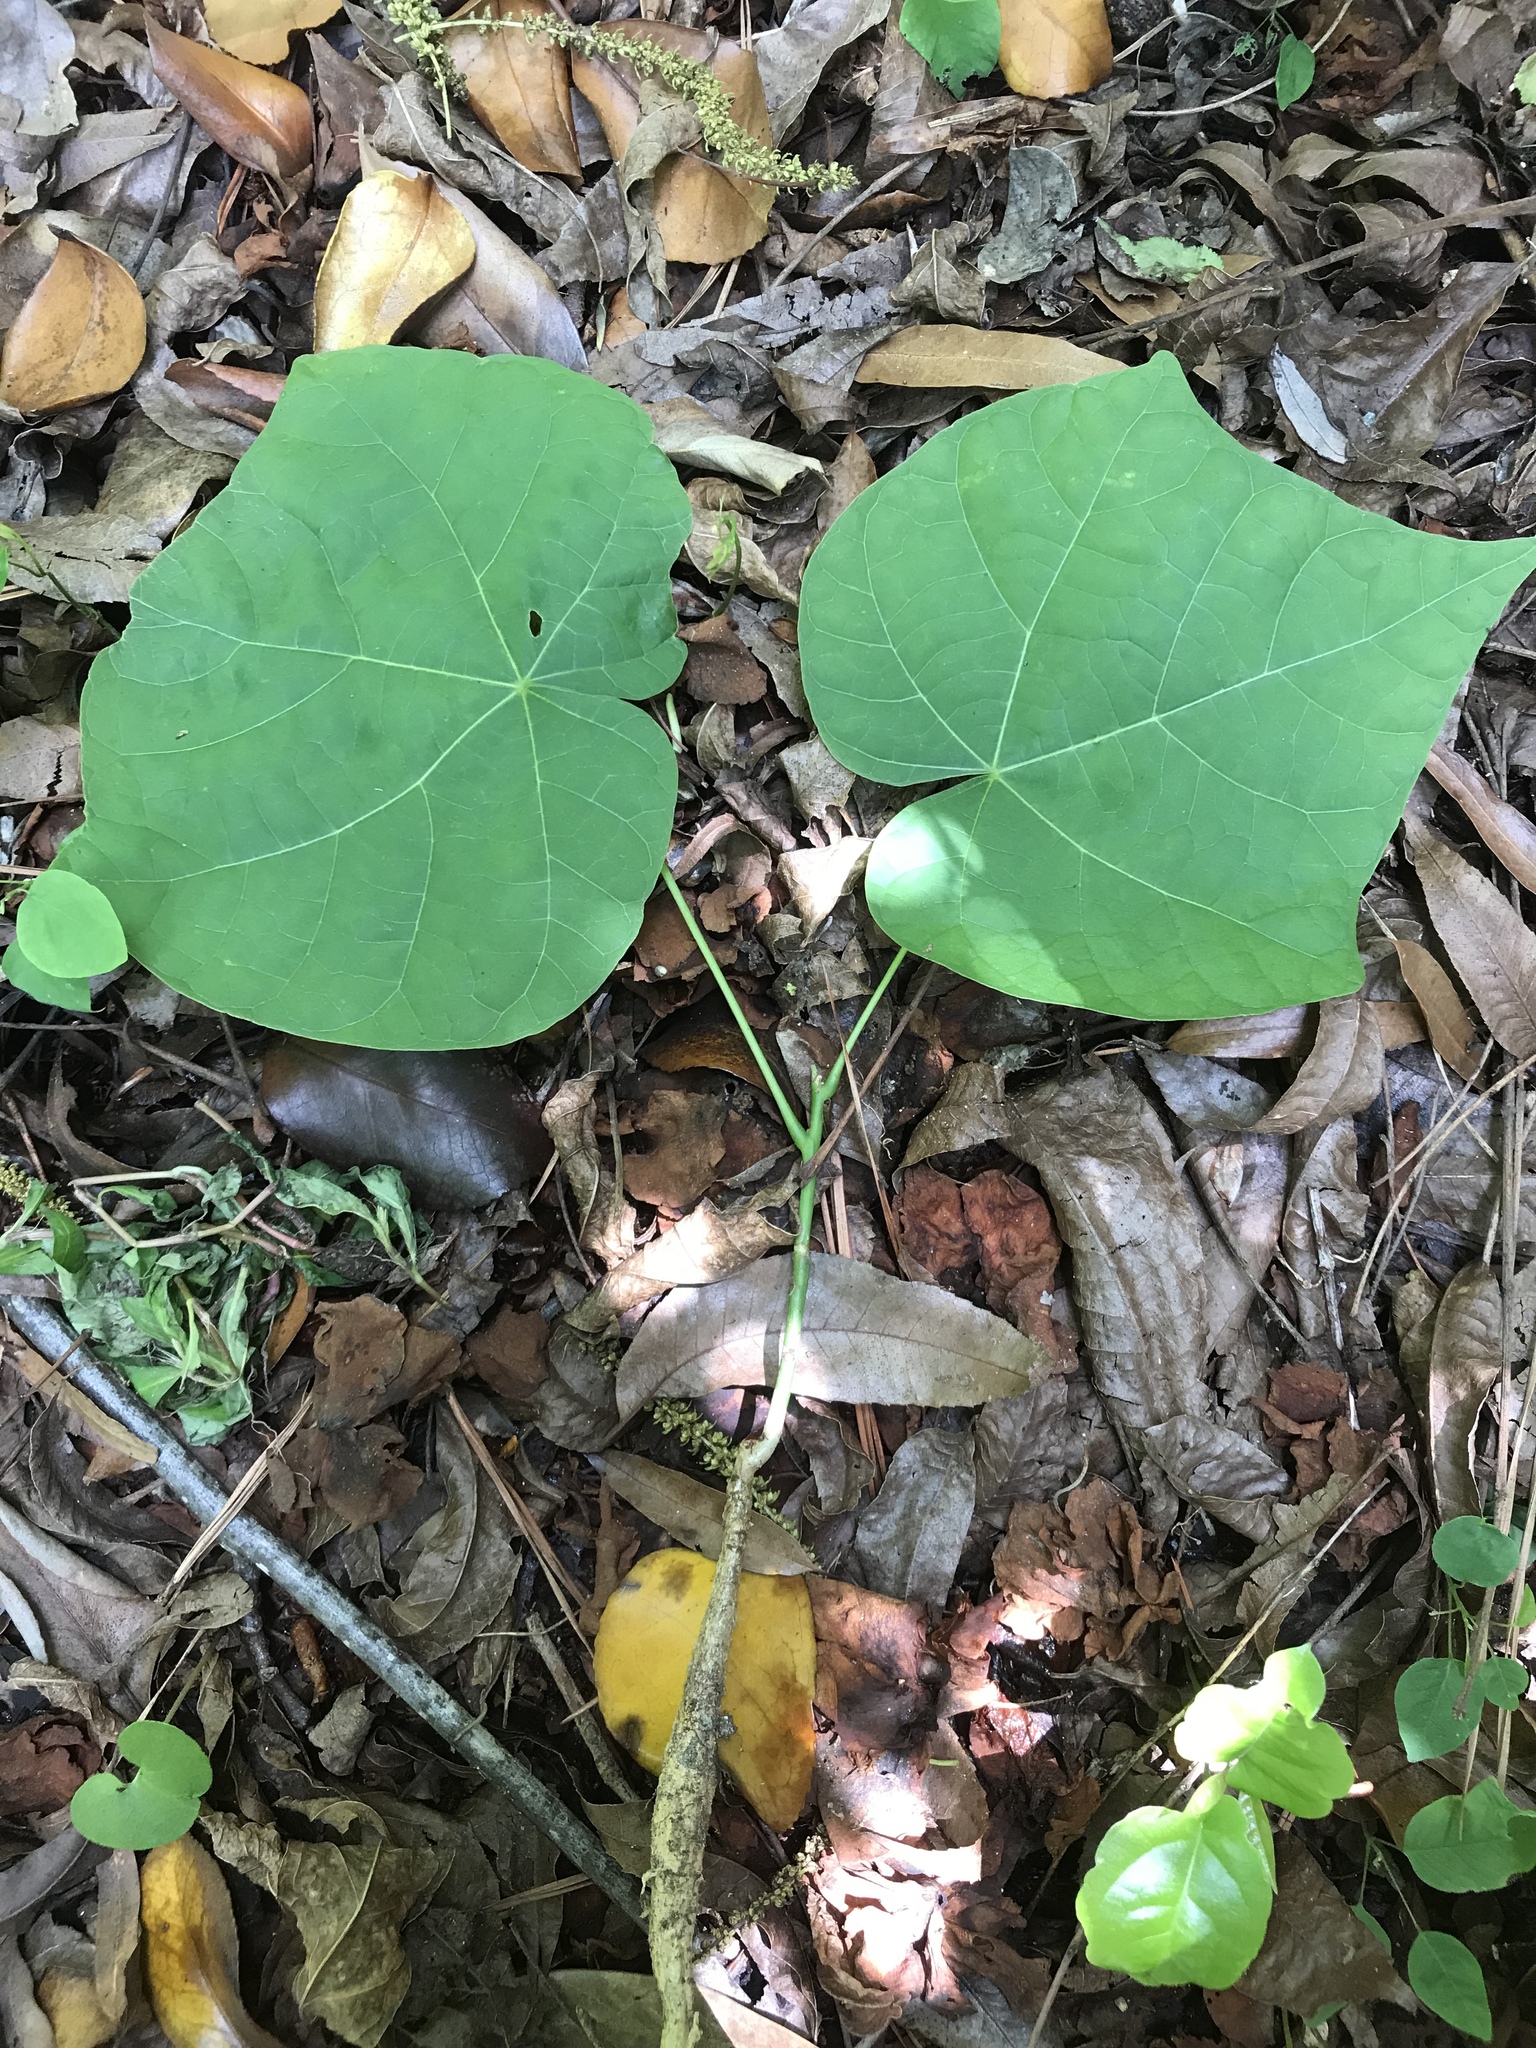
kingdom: Plantae
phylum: Tracheophyta
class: Magnoliopsida
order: Malvales
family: Malvaceae
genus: Firmiana
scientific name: Firmiana simplex
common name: Chinese parasoltree
